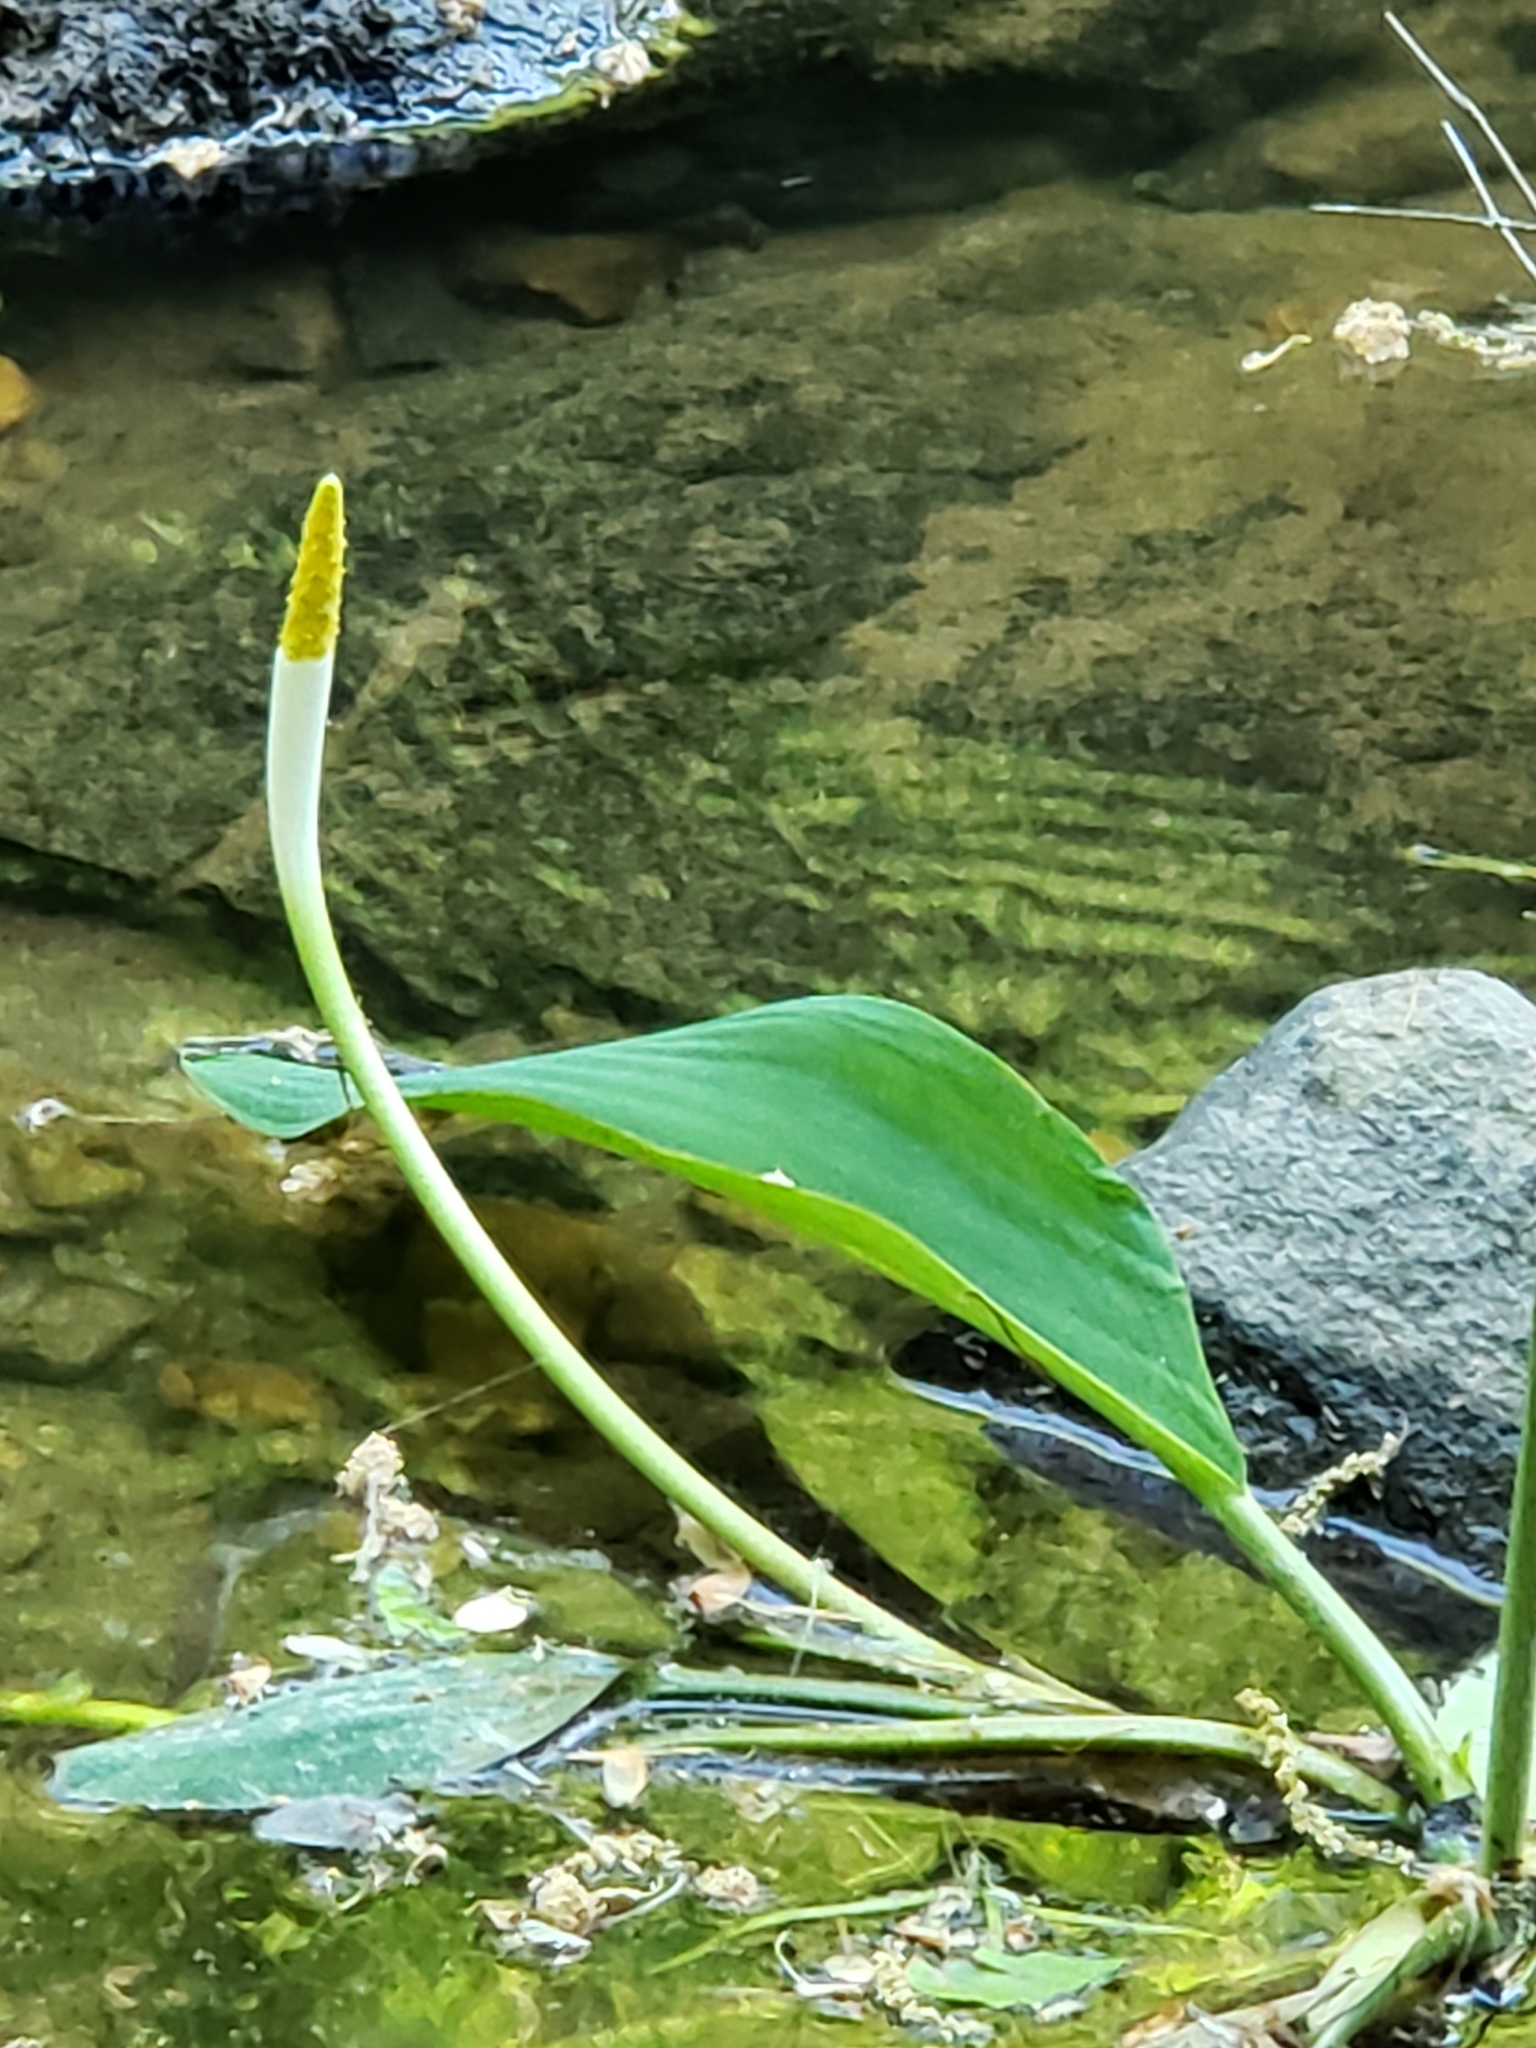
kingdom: Plantae
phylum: Tracheophyta
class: Liliopsida
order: Alismatales
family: Araceae
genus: Orontium
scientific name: Orontium aquaticum
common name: Golden-club
